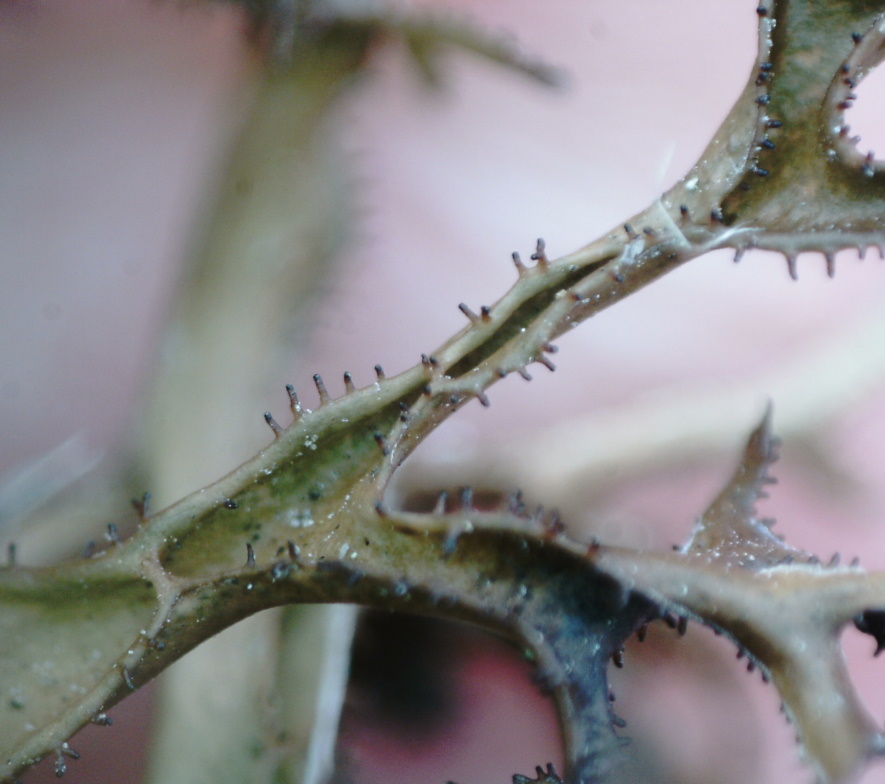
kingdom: Fungi
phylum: Ascomycota
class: Lecanoromycetes
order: Lecanorales
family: Parmeliaceae
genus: Cetraria
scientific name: Cetraria ericetorum
